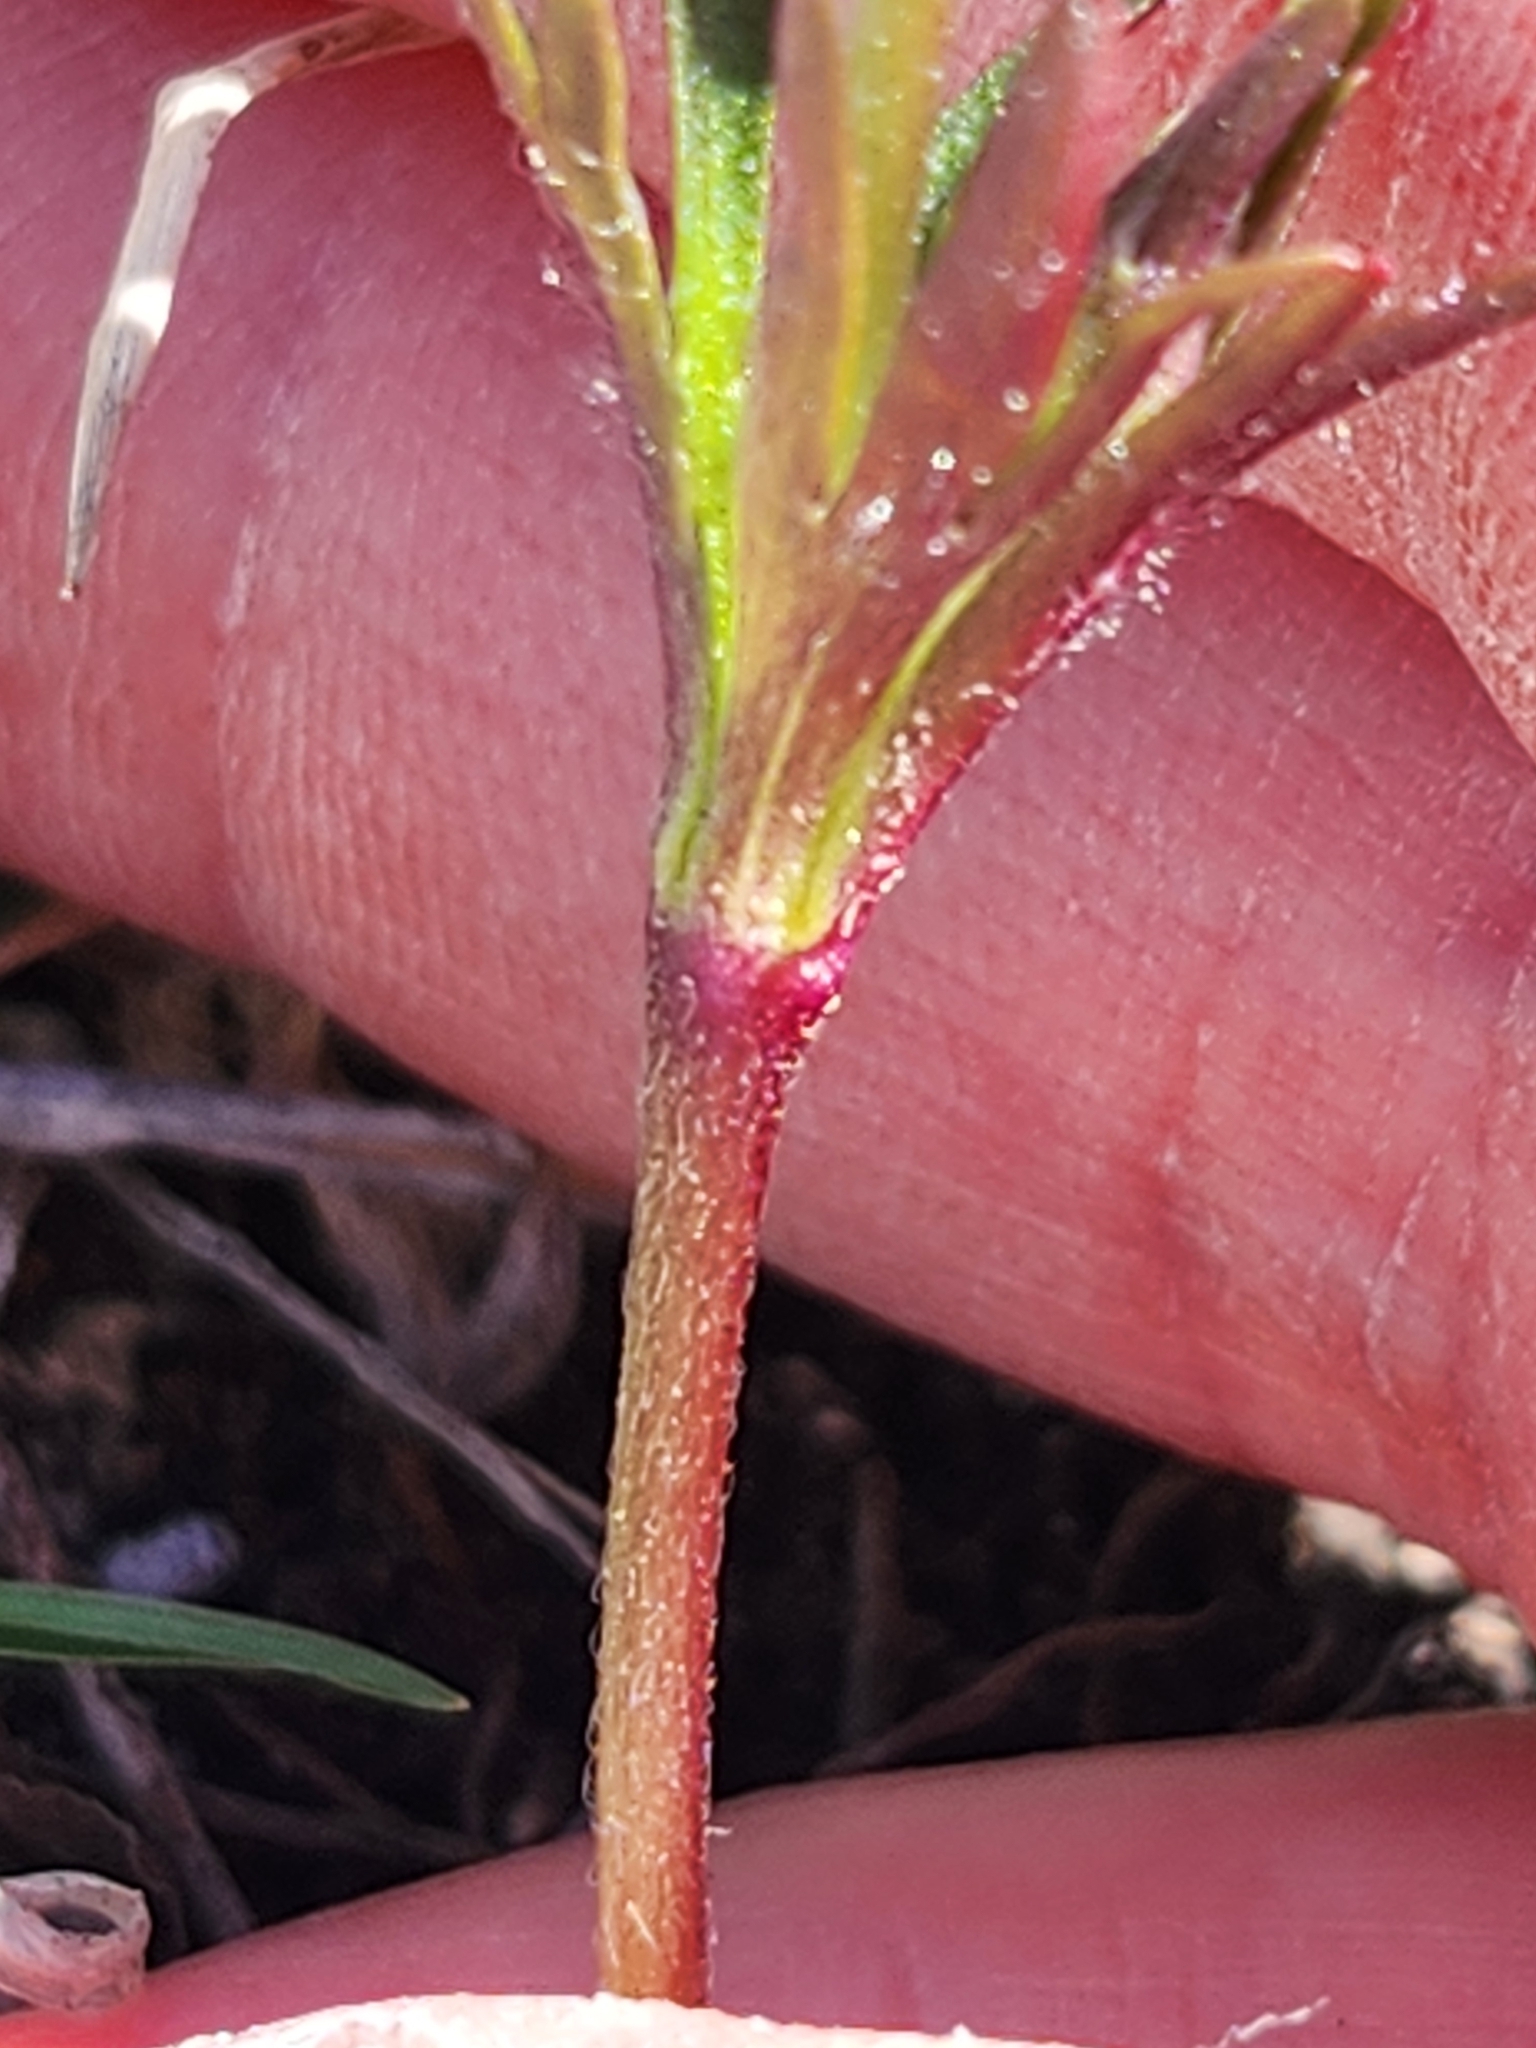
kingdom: Plantae
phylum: Tracheophyta
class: Magnoliopsida
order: Ranunculales
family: Ranunculaceae
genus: Anemone
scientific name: Anemone edwardsiana
